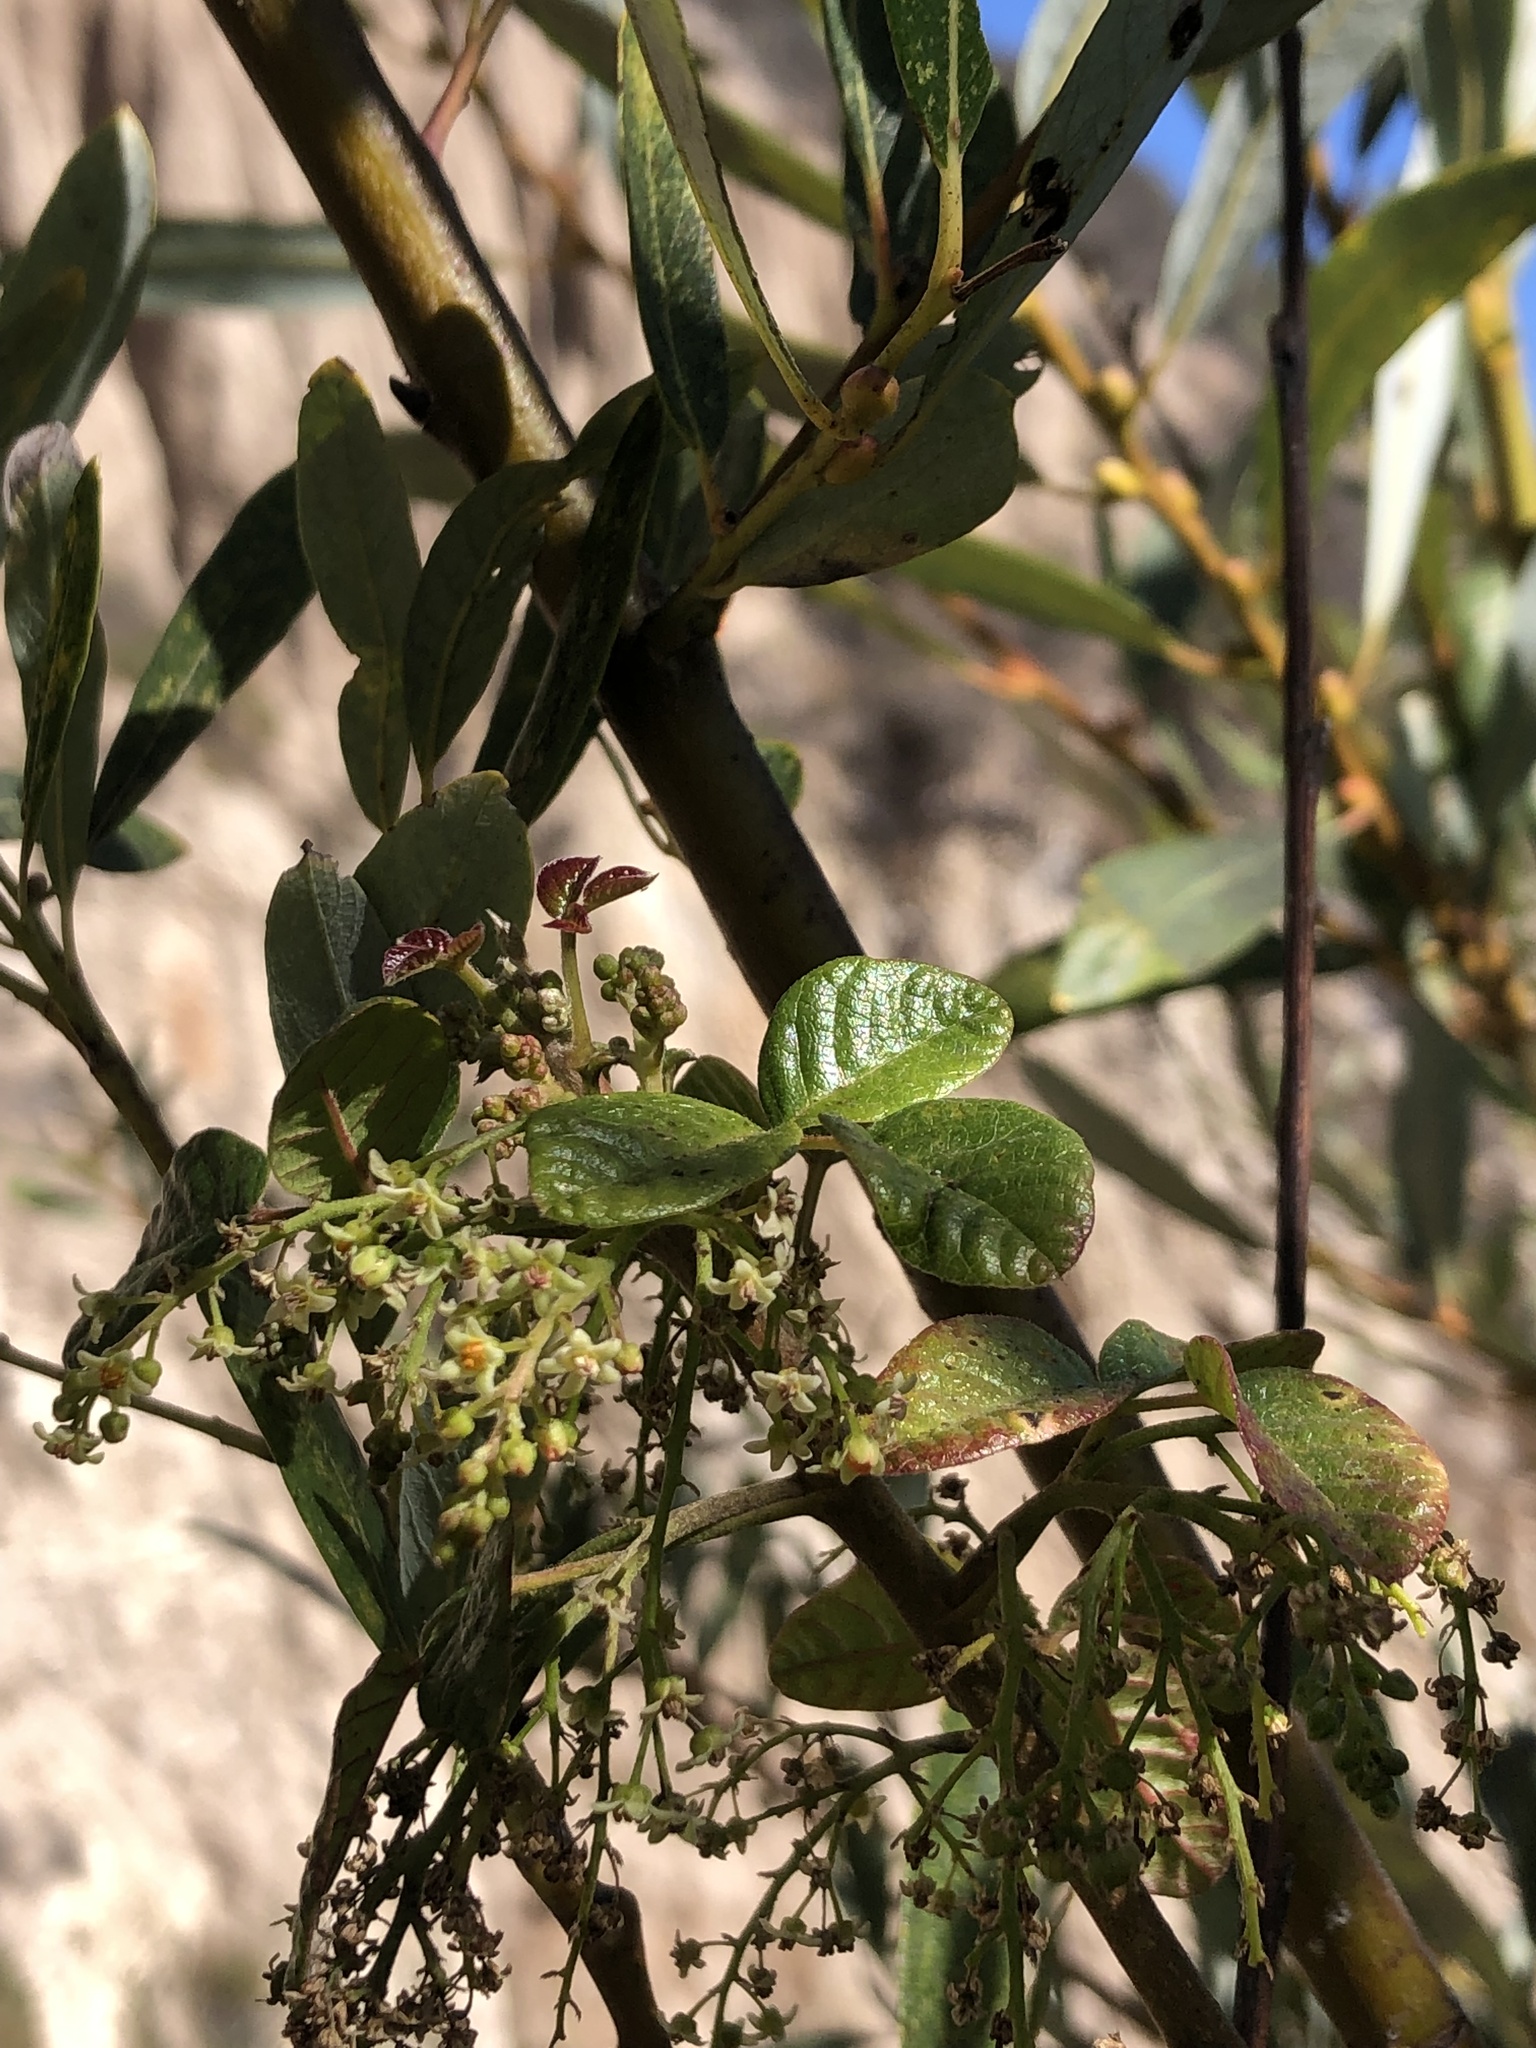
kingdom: Plantae
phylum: Tracheophyta
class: Magnoliopsida
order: Sapindales
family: Anacardiaceae
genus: Toxicodendron
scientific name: Toxicodendron diversilobum
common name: Pacific poison-oak
